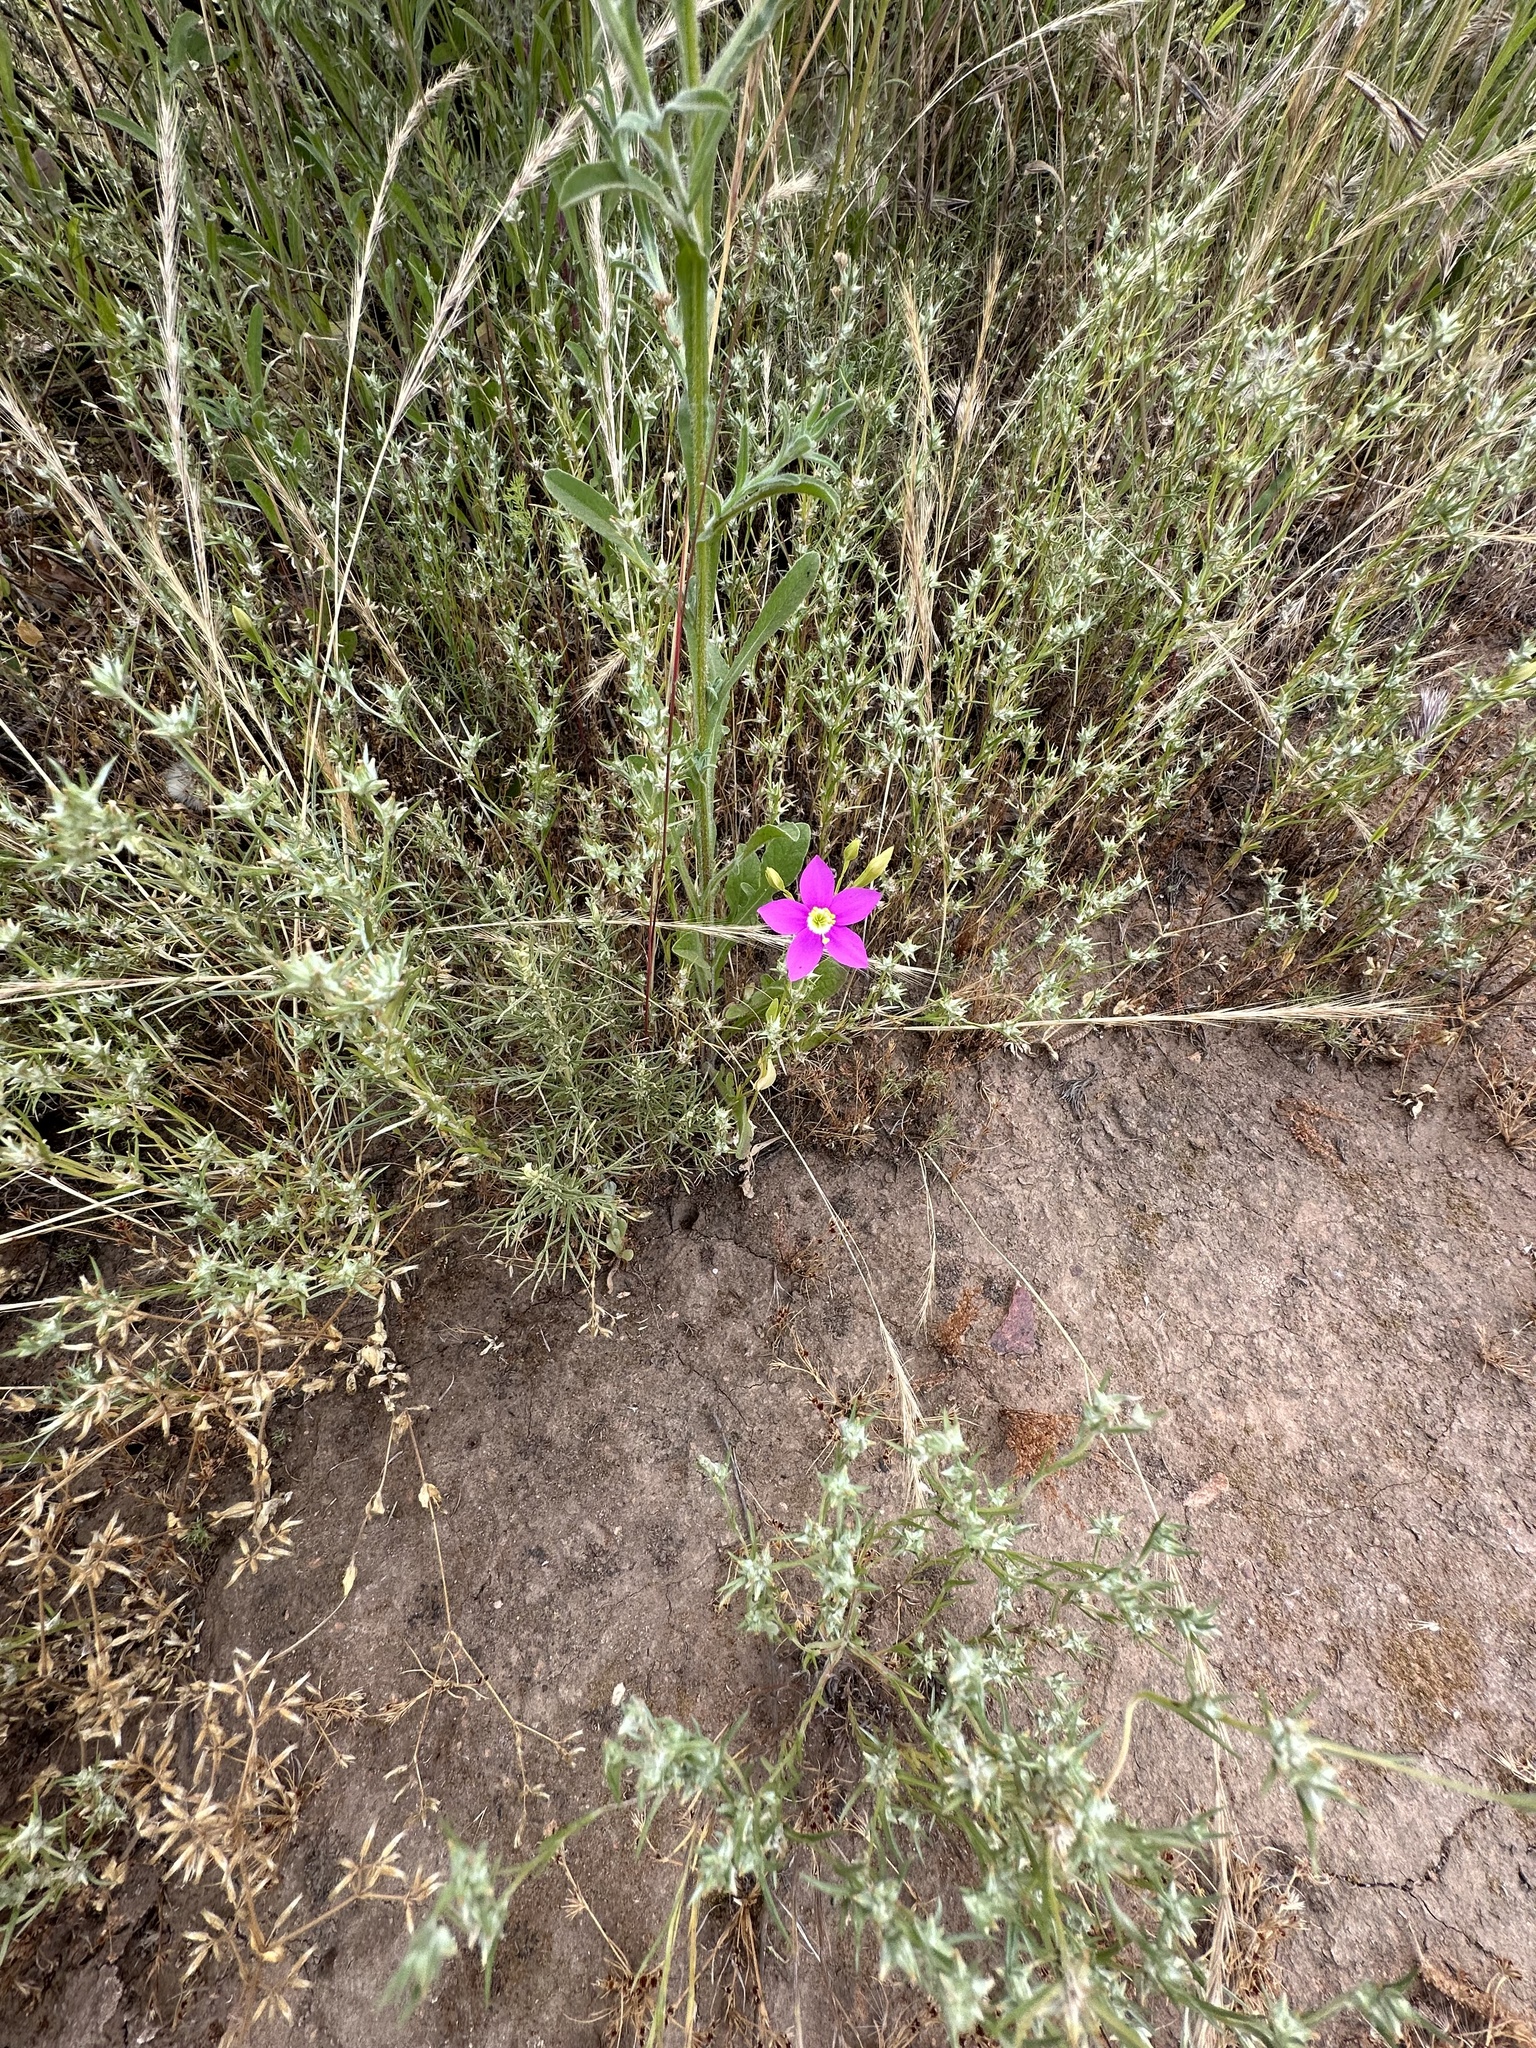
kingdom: Plantae
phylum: Tracheophyta
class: Magnoliopsida
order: Gentianales
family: Gentianaceae
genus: Zeltnera
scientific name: Zeltnera venusta
